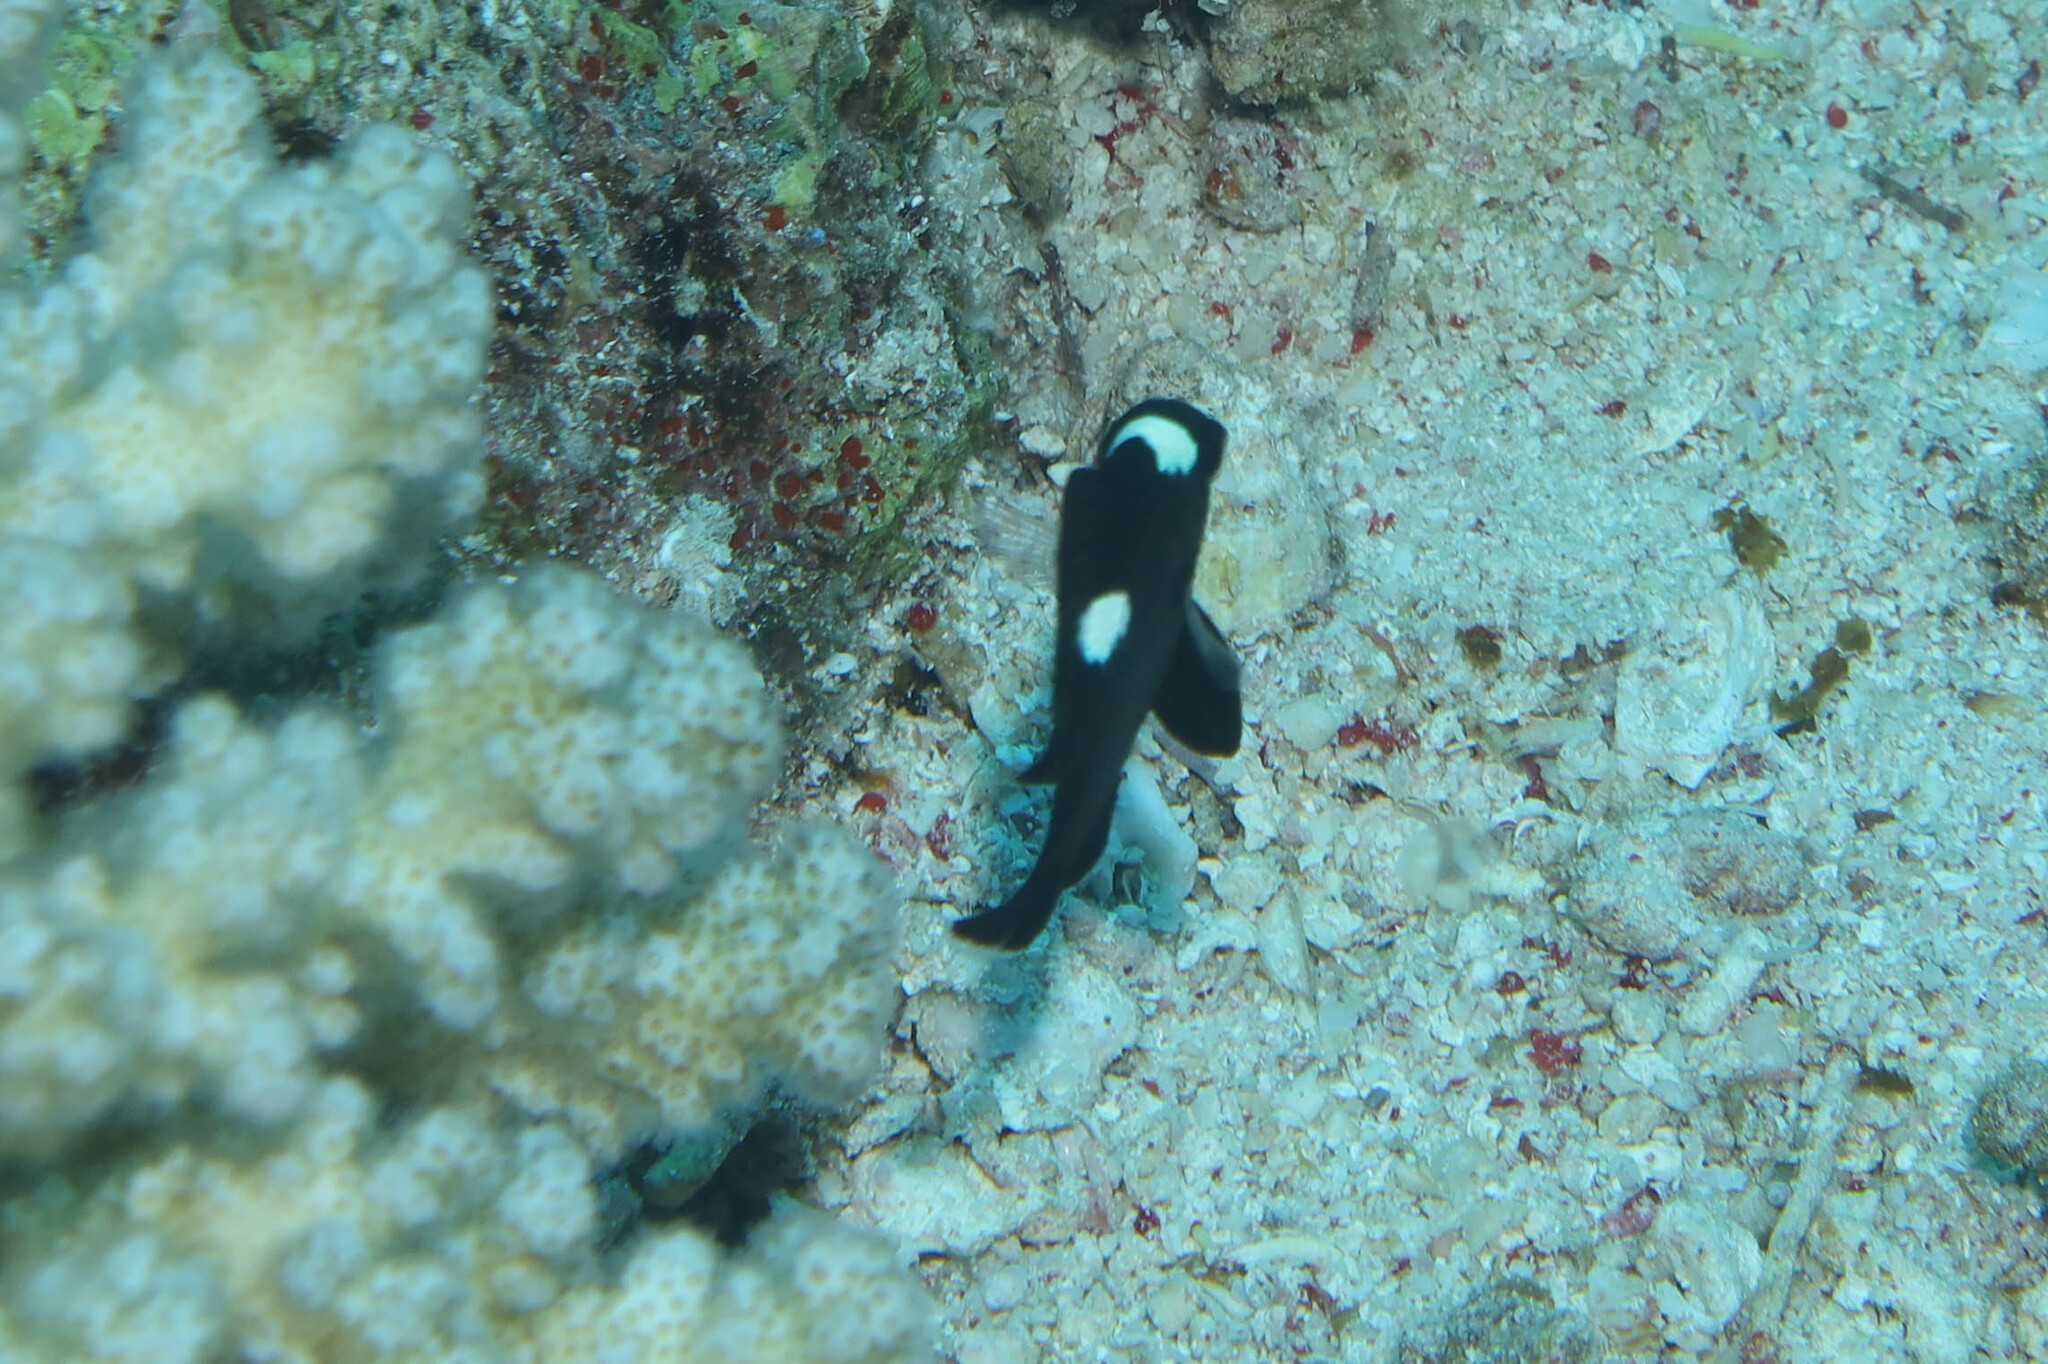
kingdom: Animalia
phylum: Chordata
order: Perciformes
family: Pomacentridae
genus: Dascyllus
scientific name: Dascyllus trimaculatus
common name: Threespot dascyllus
